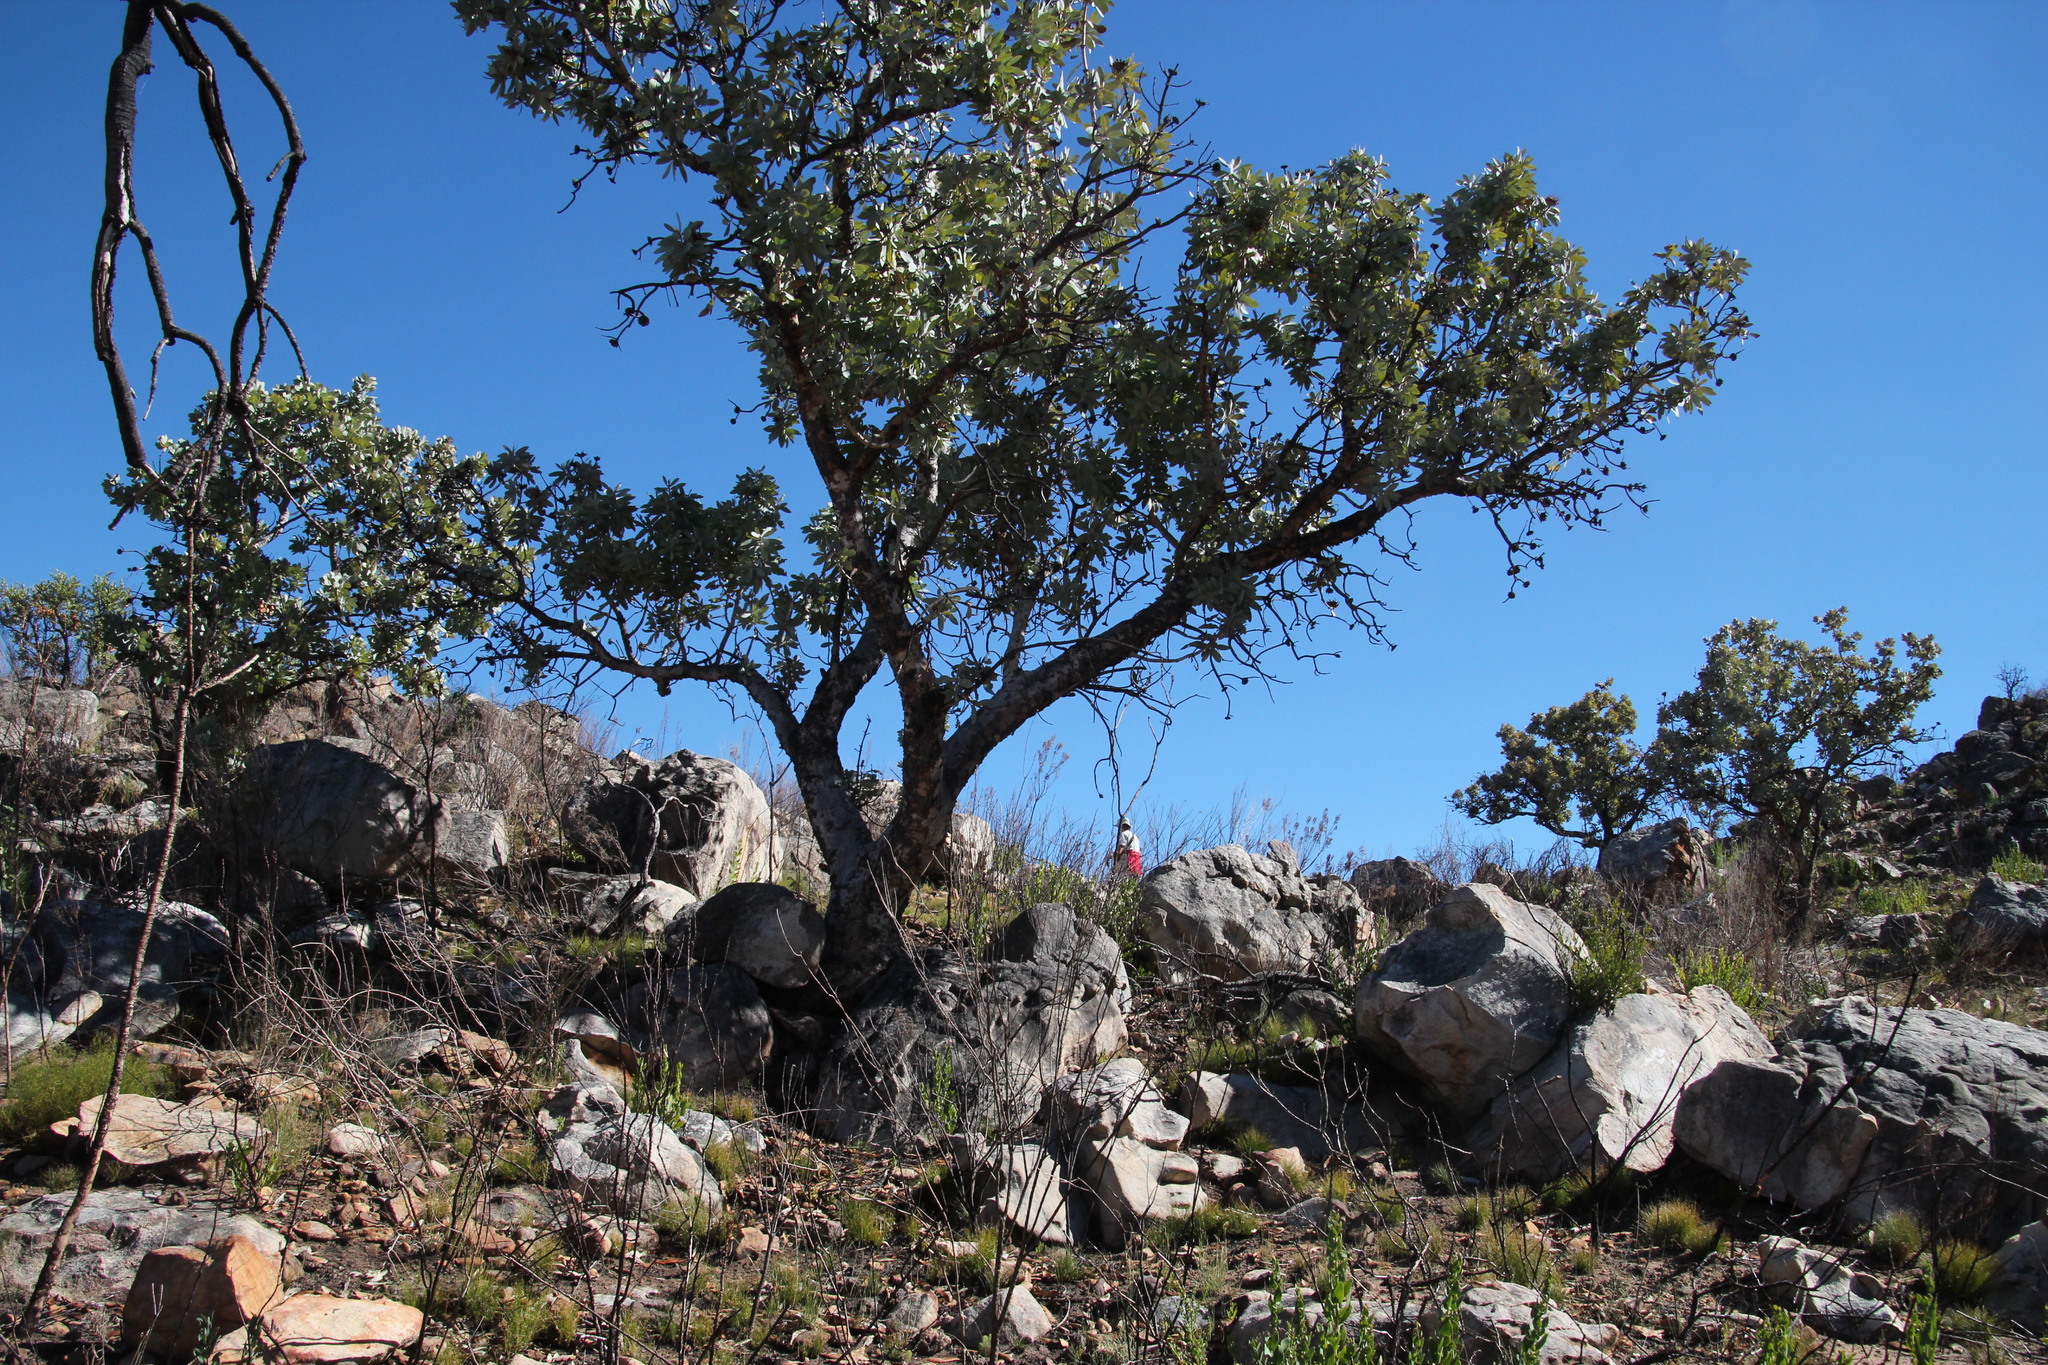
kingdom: Plantae
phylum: Tracheophyta
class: Magnoliopsida
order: Proteales
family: Proteaceae
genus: Protea
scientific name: Protea nitida
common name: Tree protea
